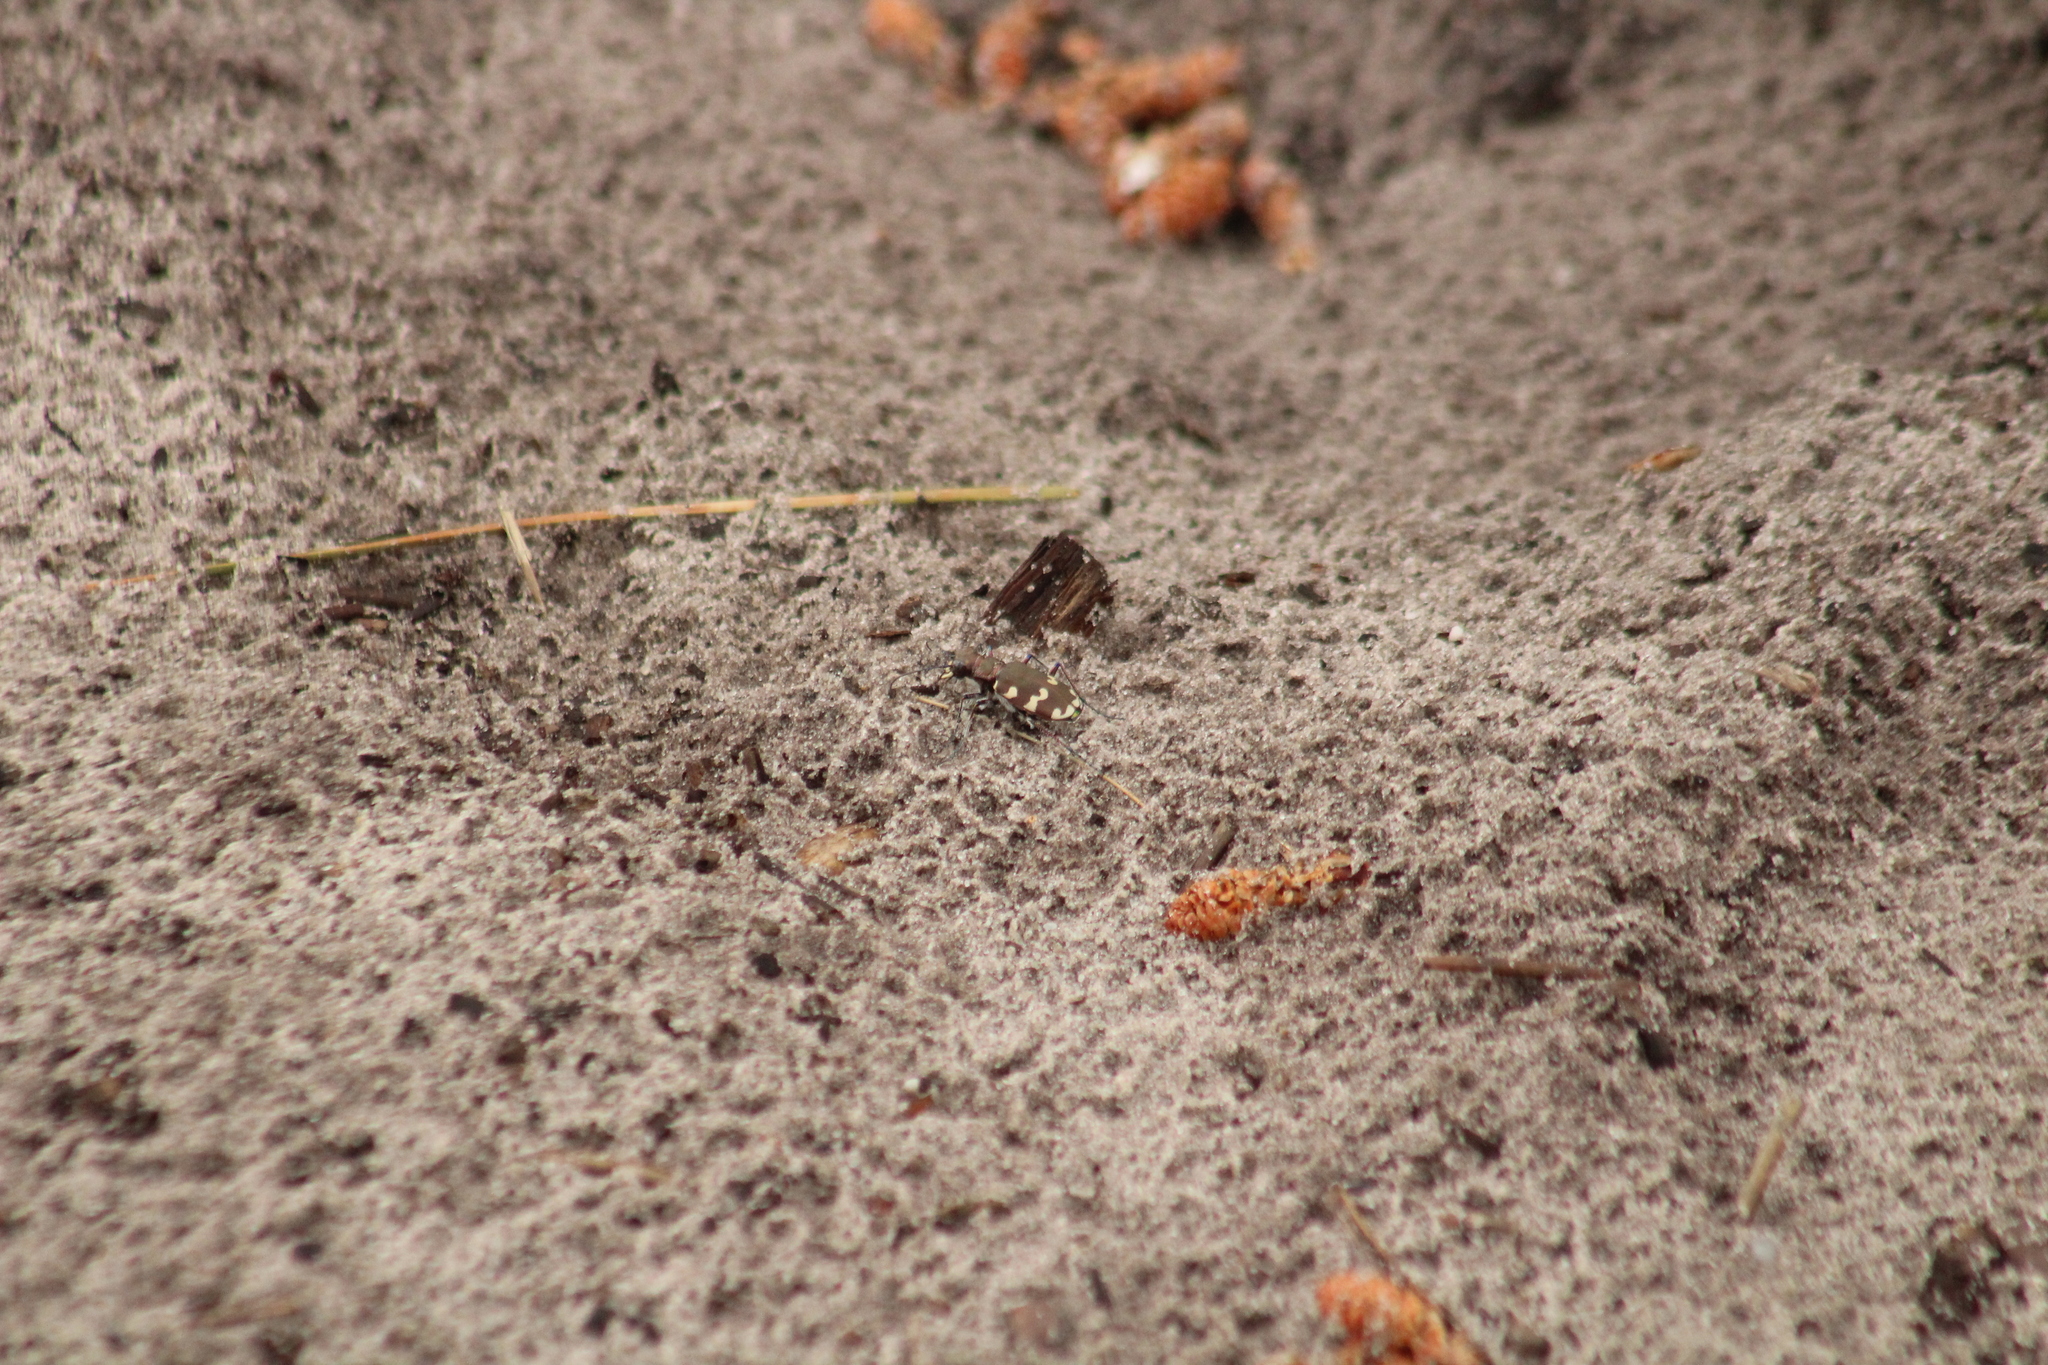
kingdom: Animalia
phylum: Arthropoda
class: Insecta
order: Coleoptera
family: Carabidae
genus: Cicindela
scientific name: Cicindela hybrida
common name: Northern dune tiger beetle
